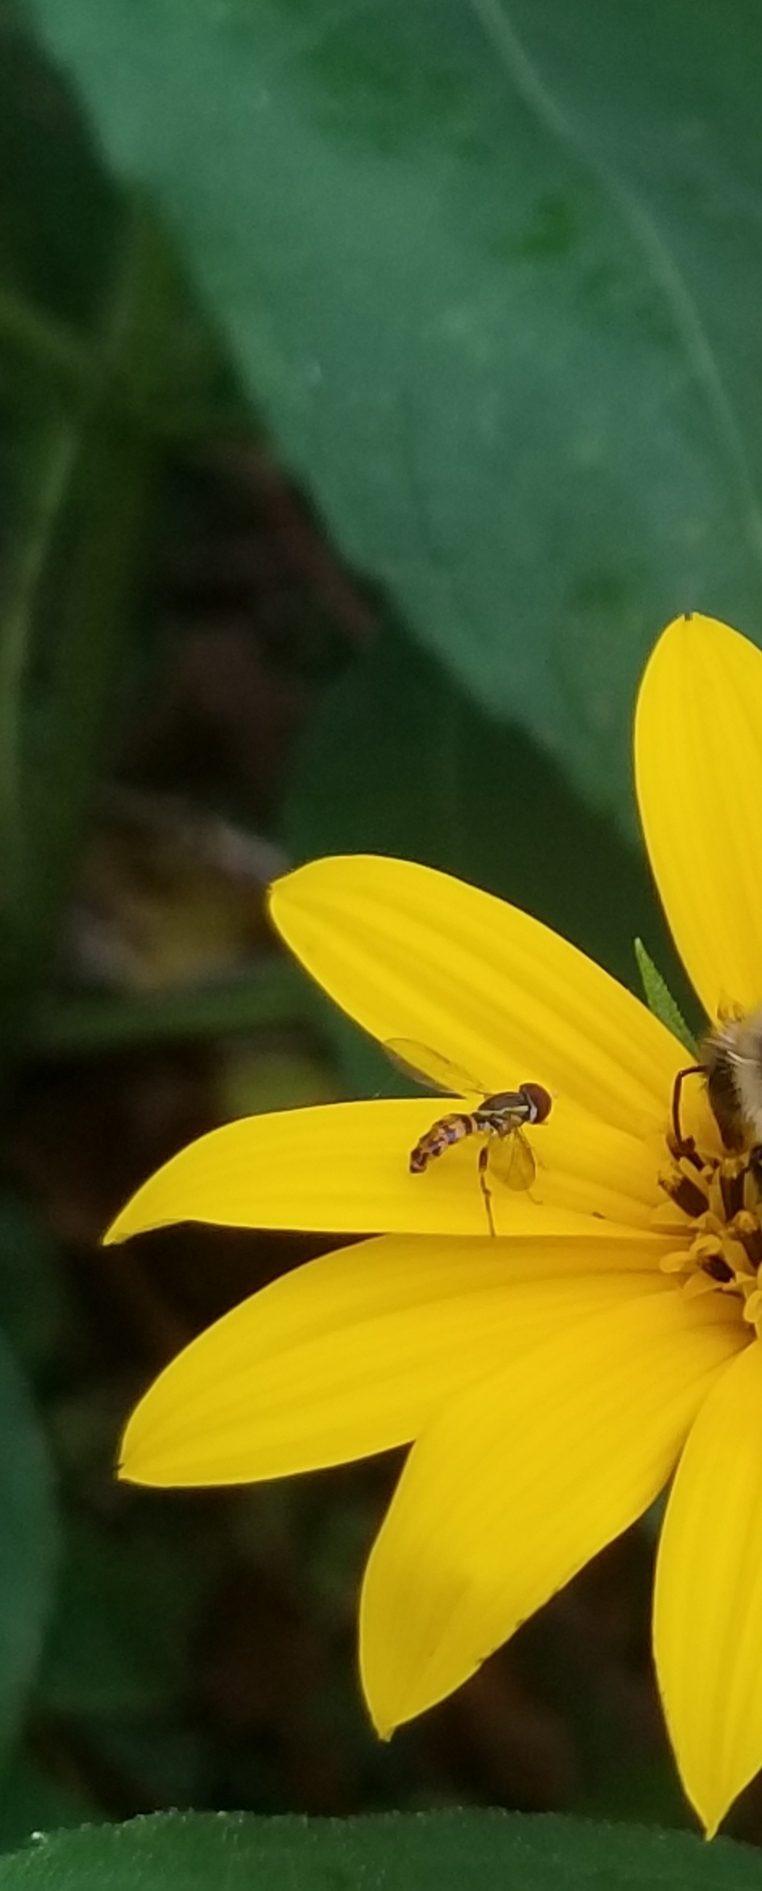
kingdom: Animalia
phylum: Arthropoda
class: Insecta
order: Diptera
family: Syrphidae
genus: Toxomerus
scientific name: Toxomerus geminatus
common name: Eastern calligrapher
